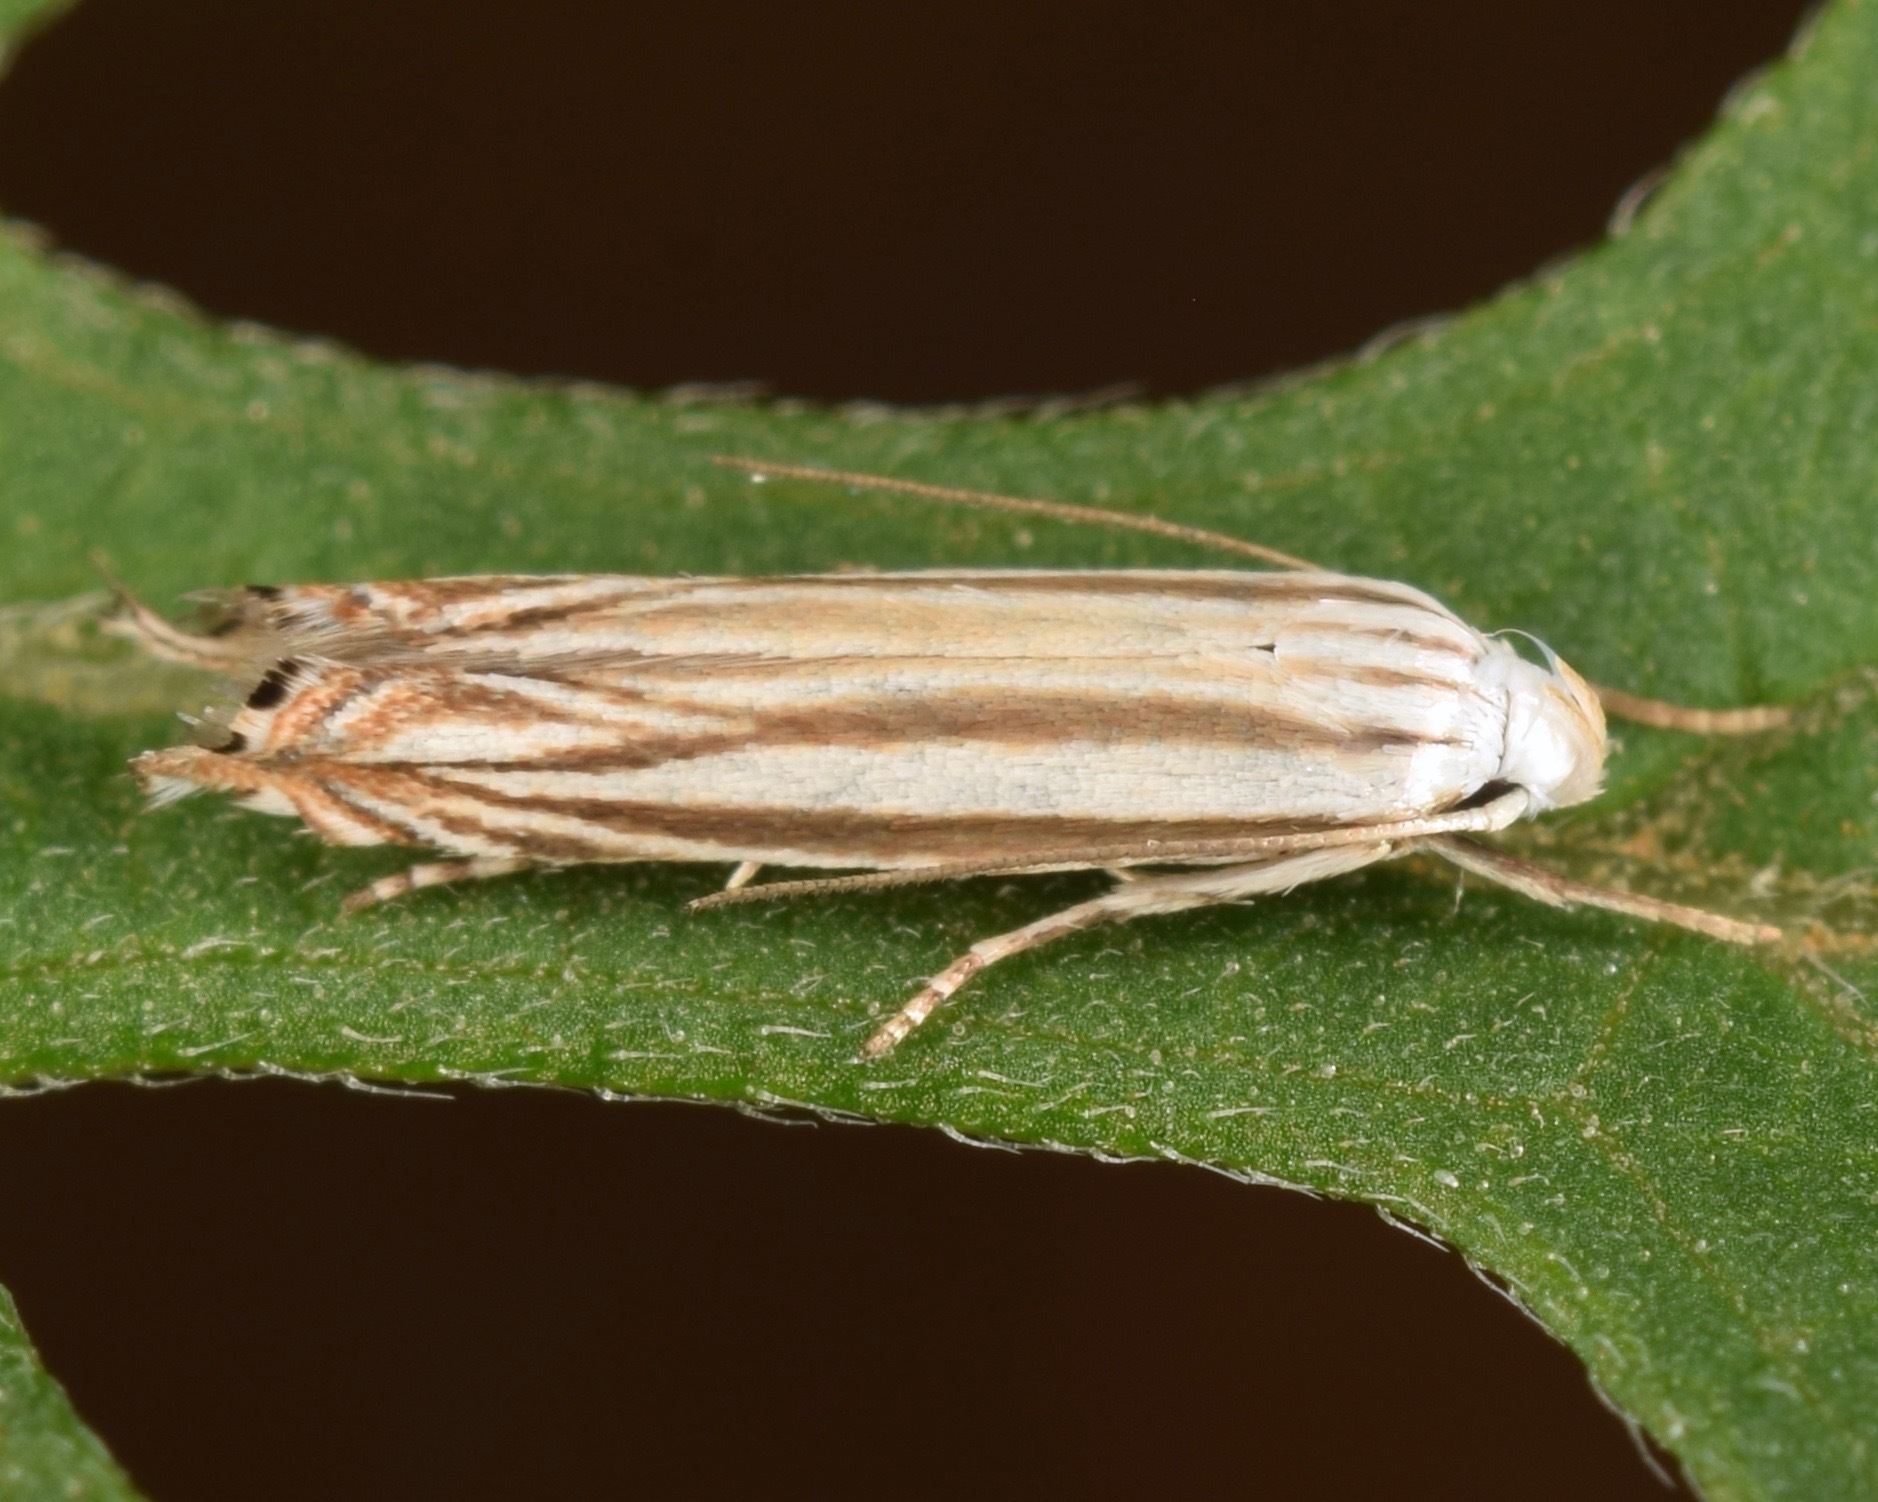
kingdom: Animalia
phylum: Arthropoda
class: Insecta
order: Lepidoptera
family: Gelechiidae
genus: Polyhymno
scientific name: Polyhymno luteostrigella
